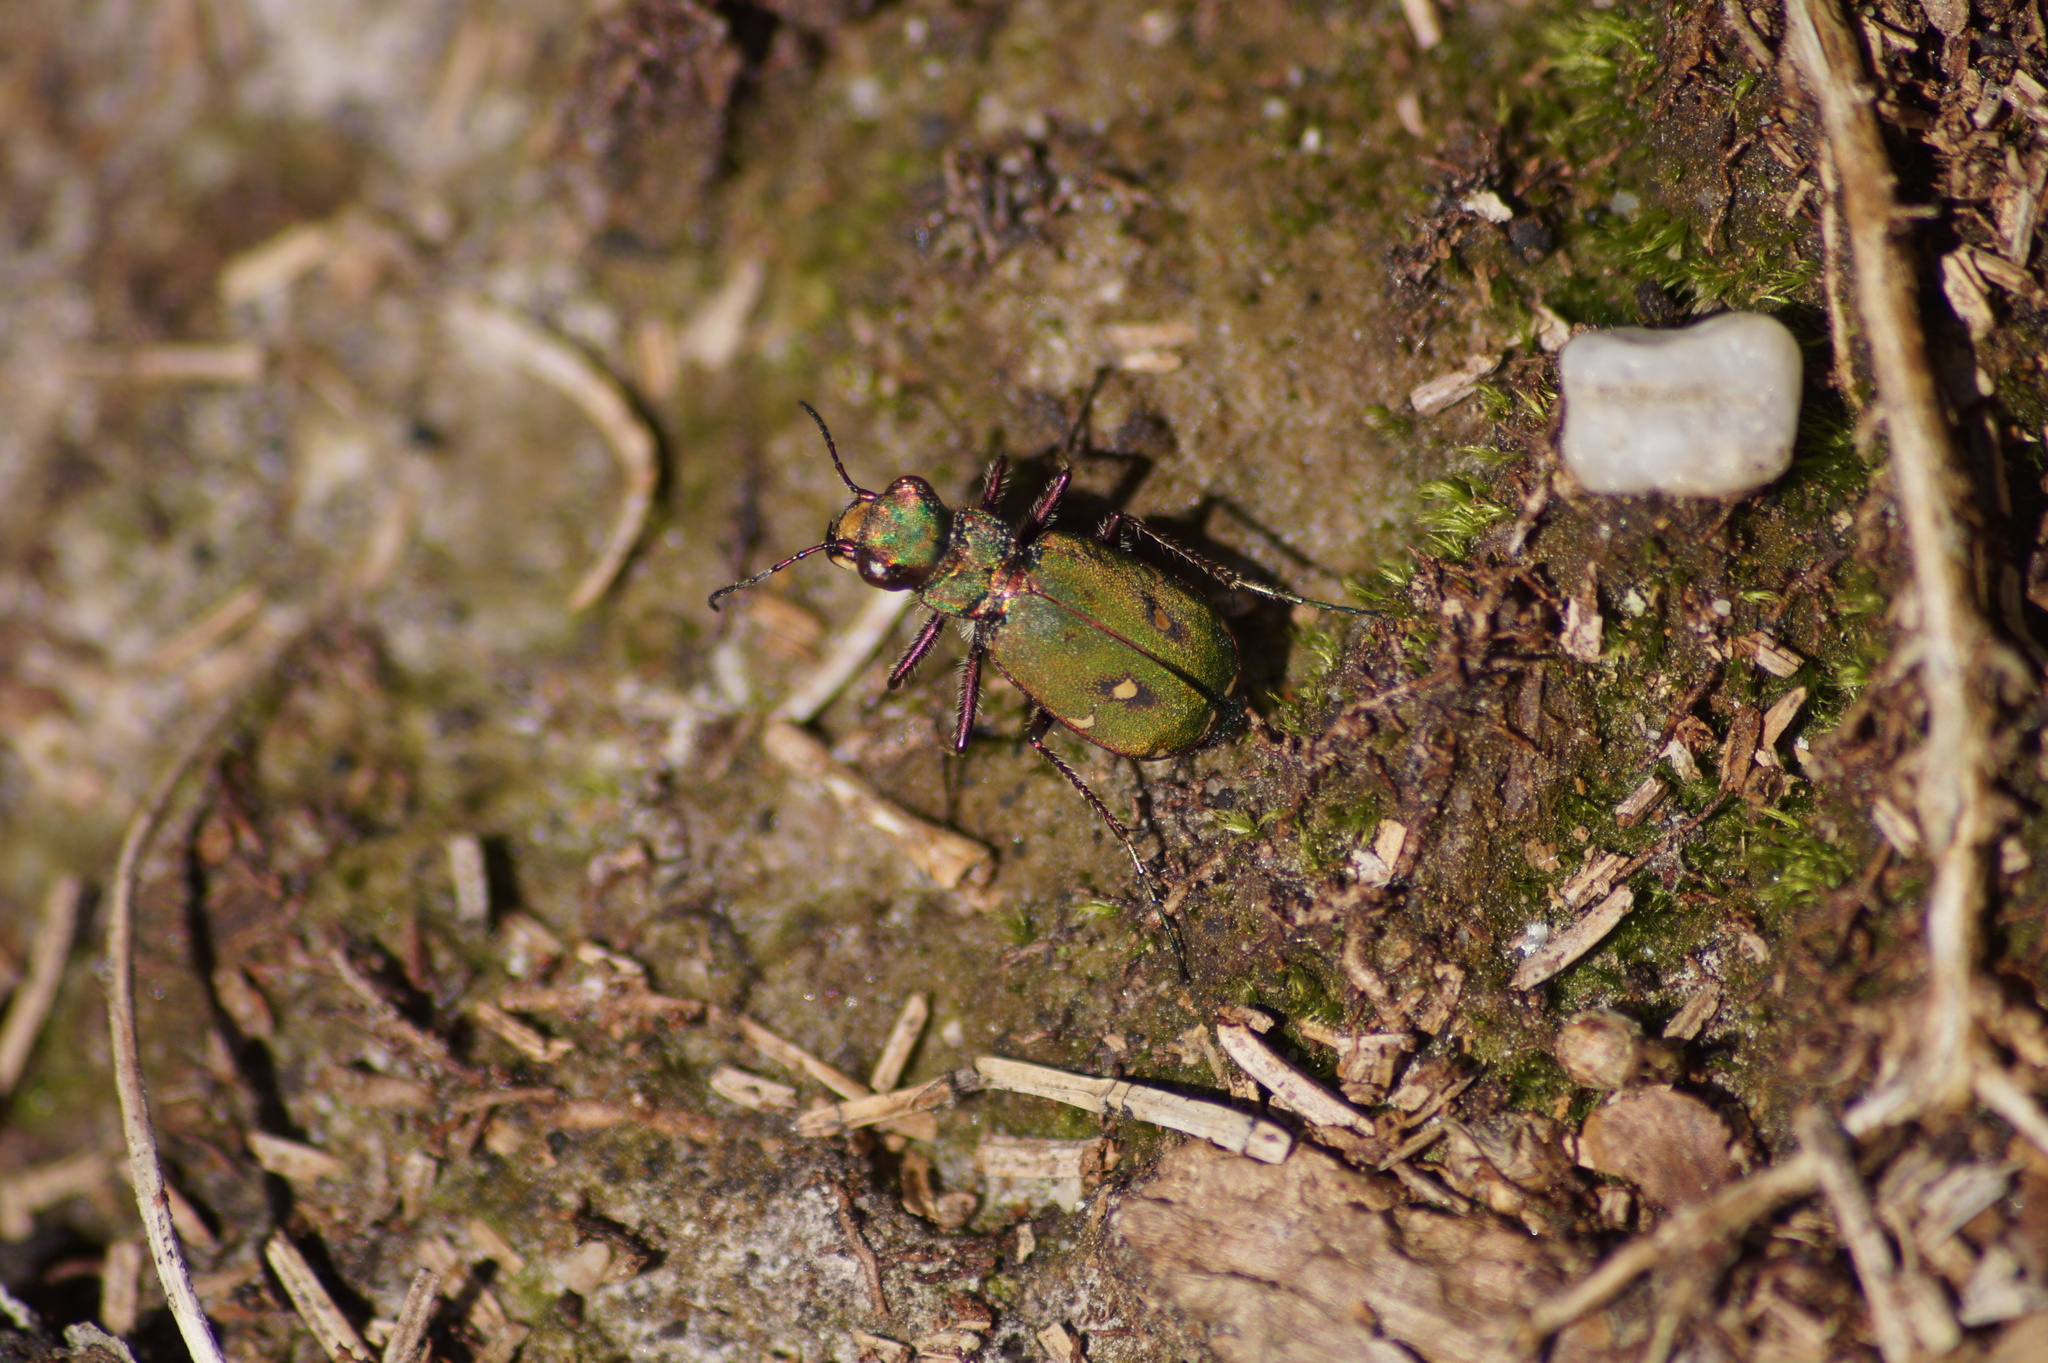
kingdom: Animalia
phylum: Arthropoda
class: Insecta
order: Coleoptera
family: Carabidae
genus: Cicindela
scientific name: Cicindela campestris
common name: Common tiger beetle
